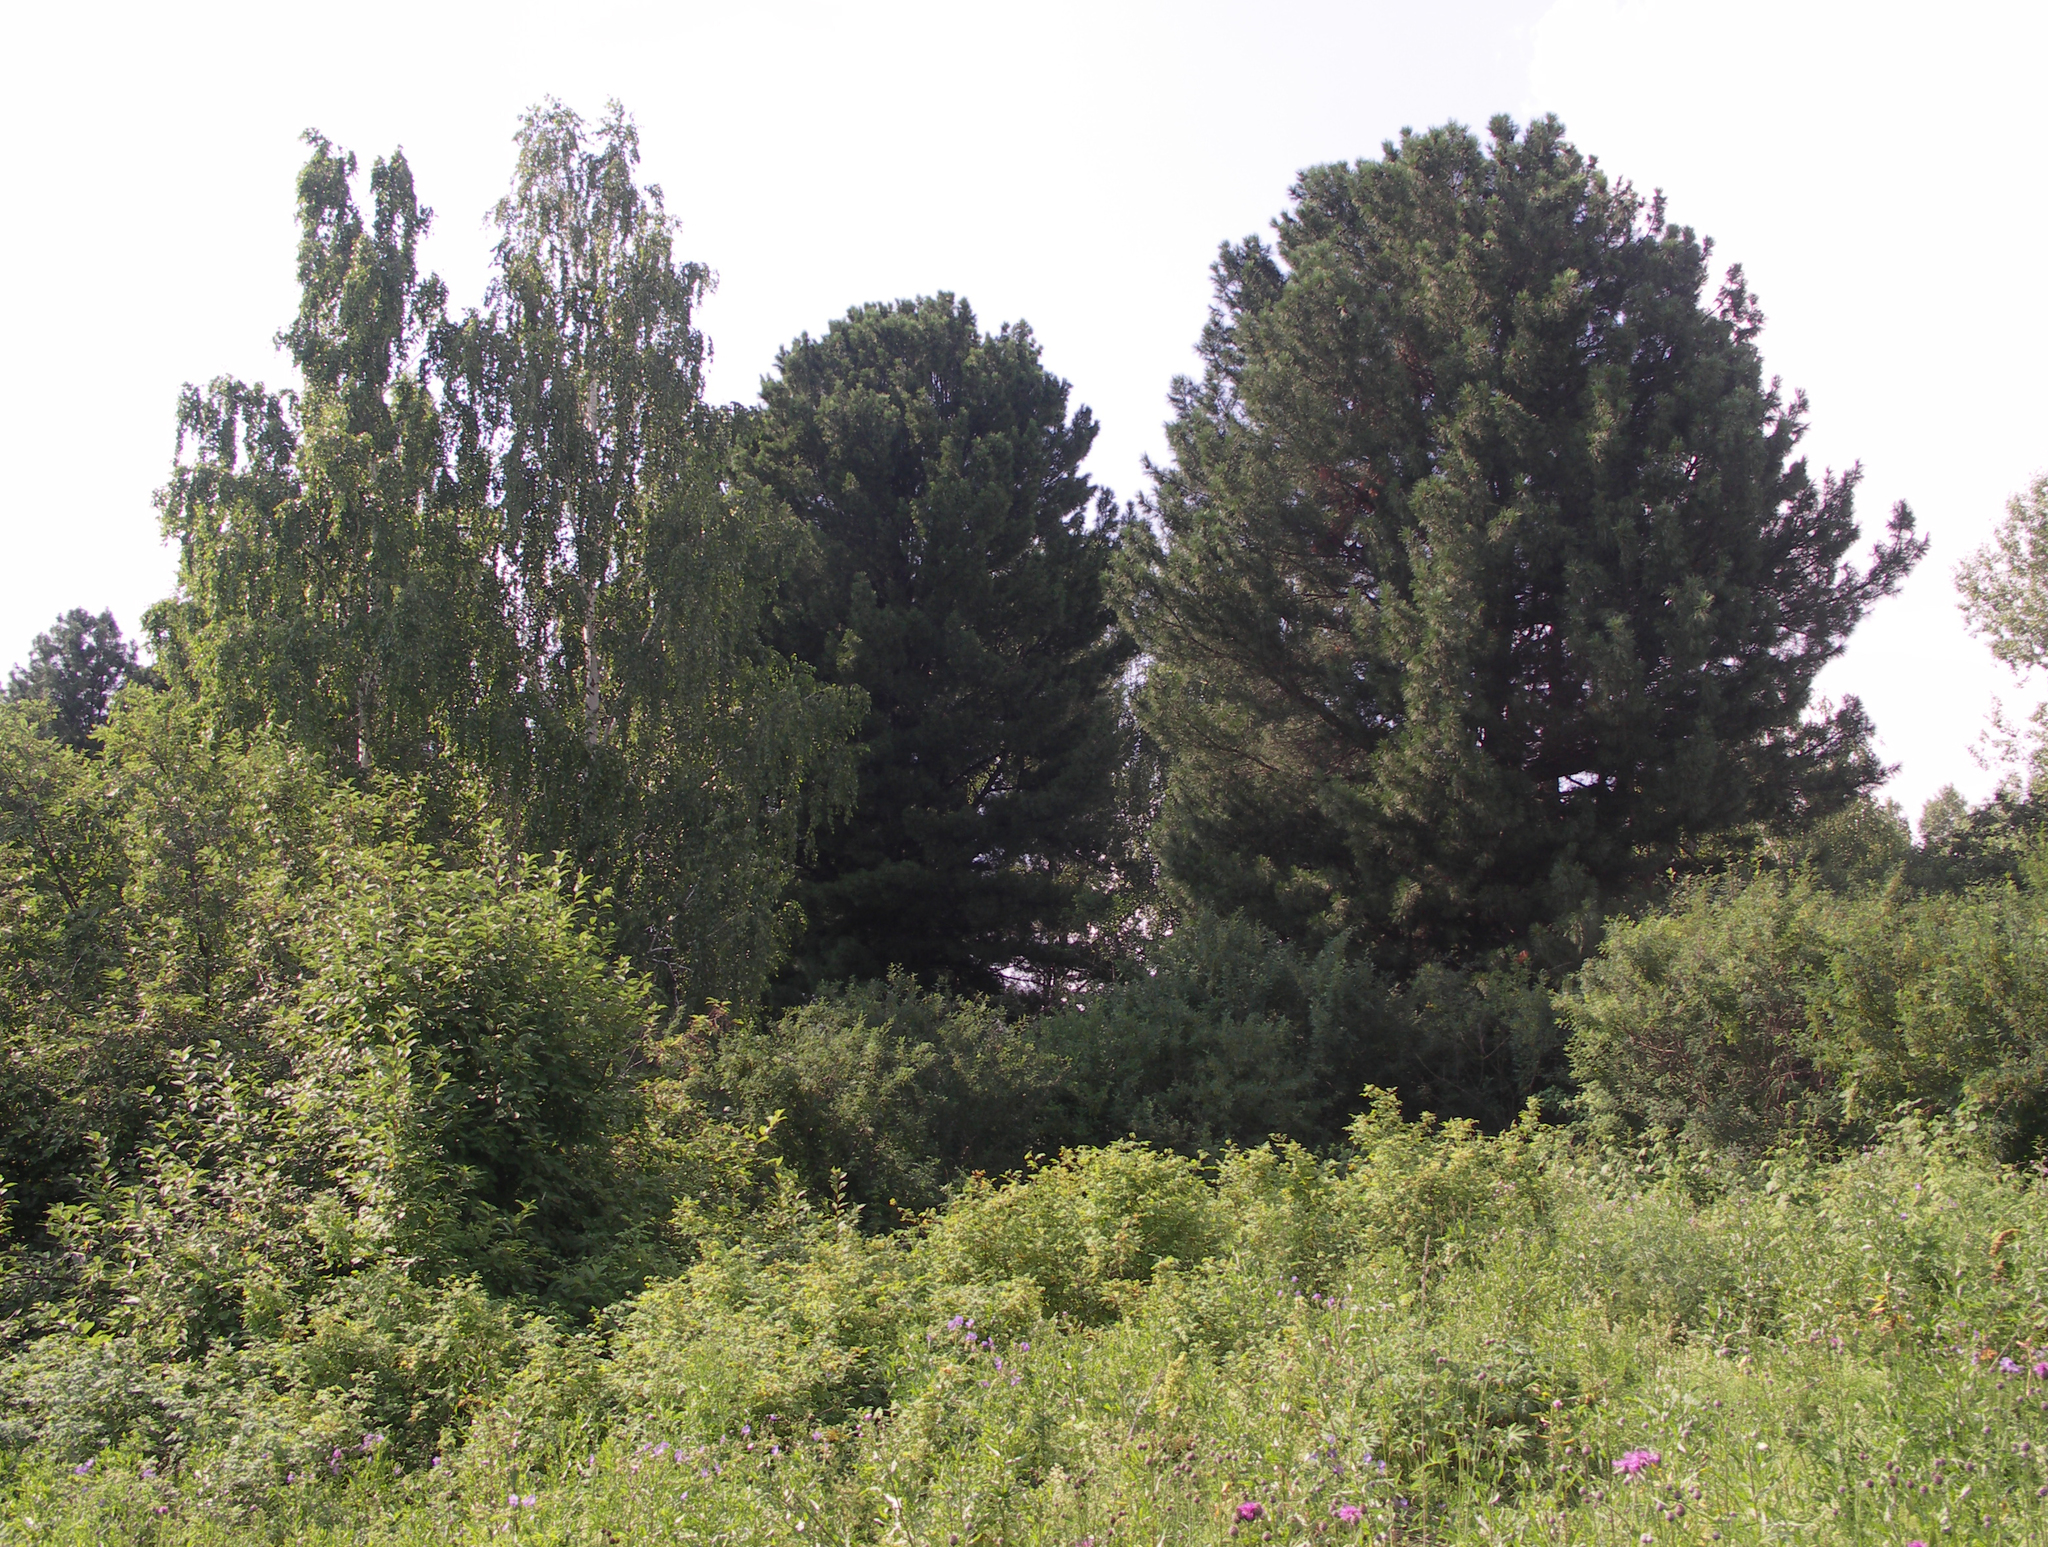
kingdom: Plantae
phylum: Tracheophyta
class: Pinopsida
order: Pinales
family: Pinaceae
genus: Pinus
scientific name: Pinus sibirica
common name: Siberian pine
